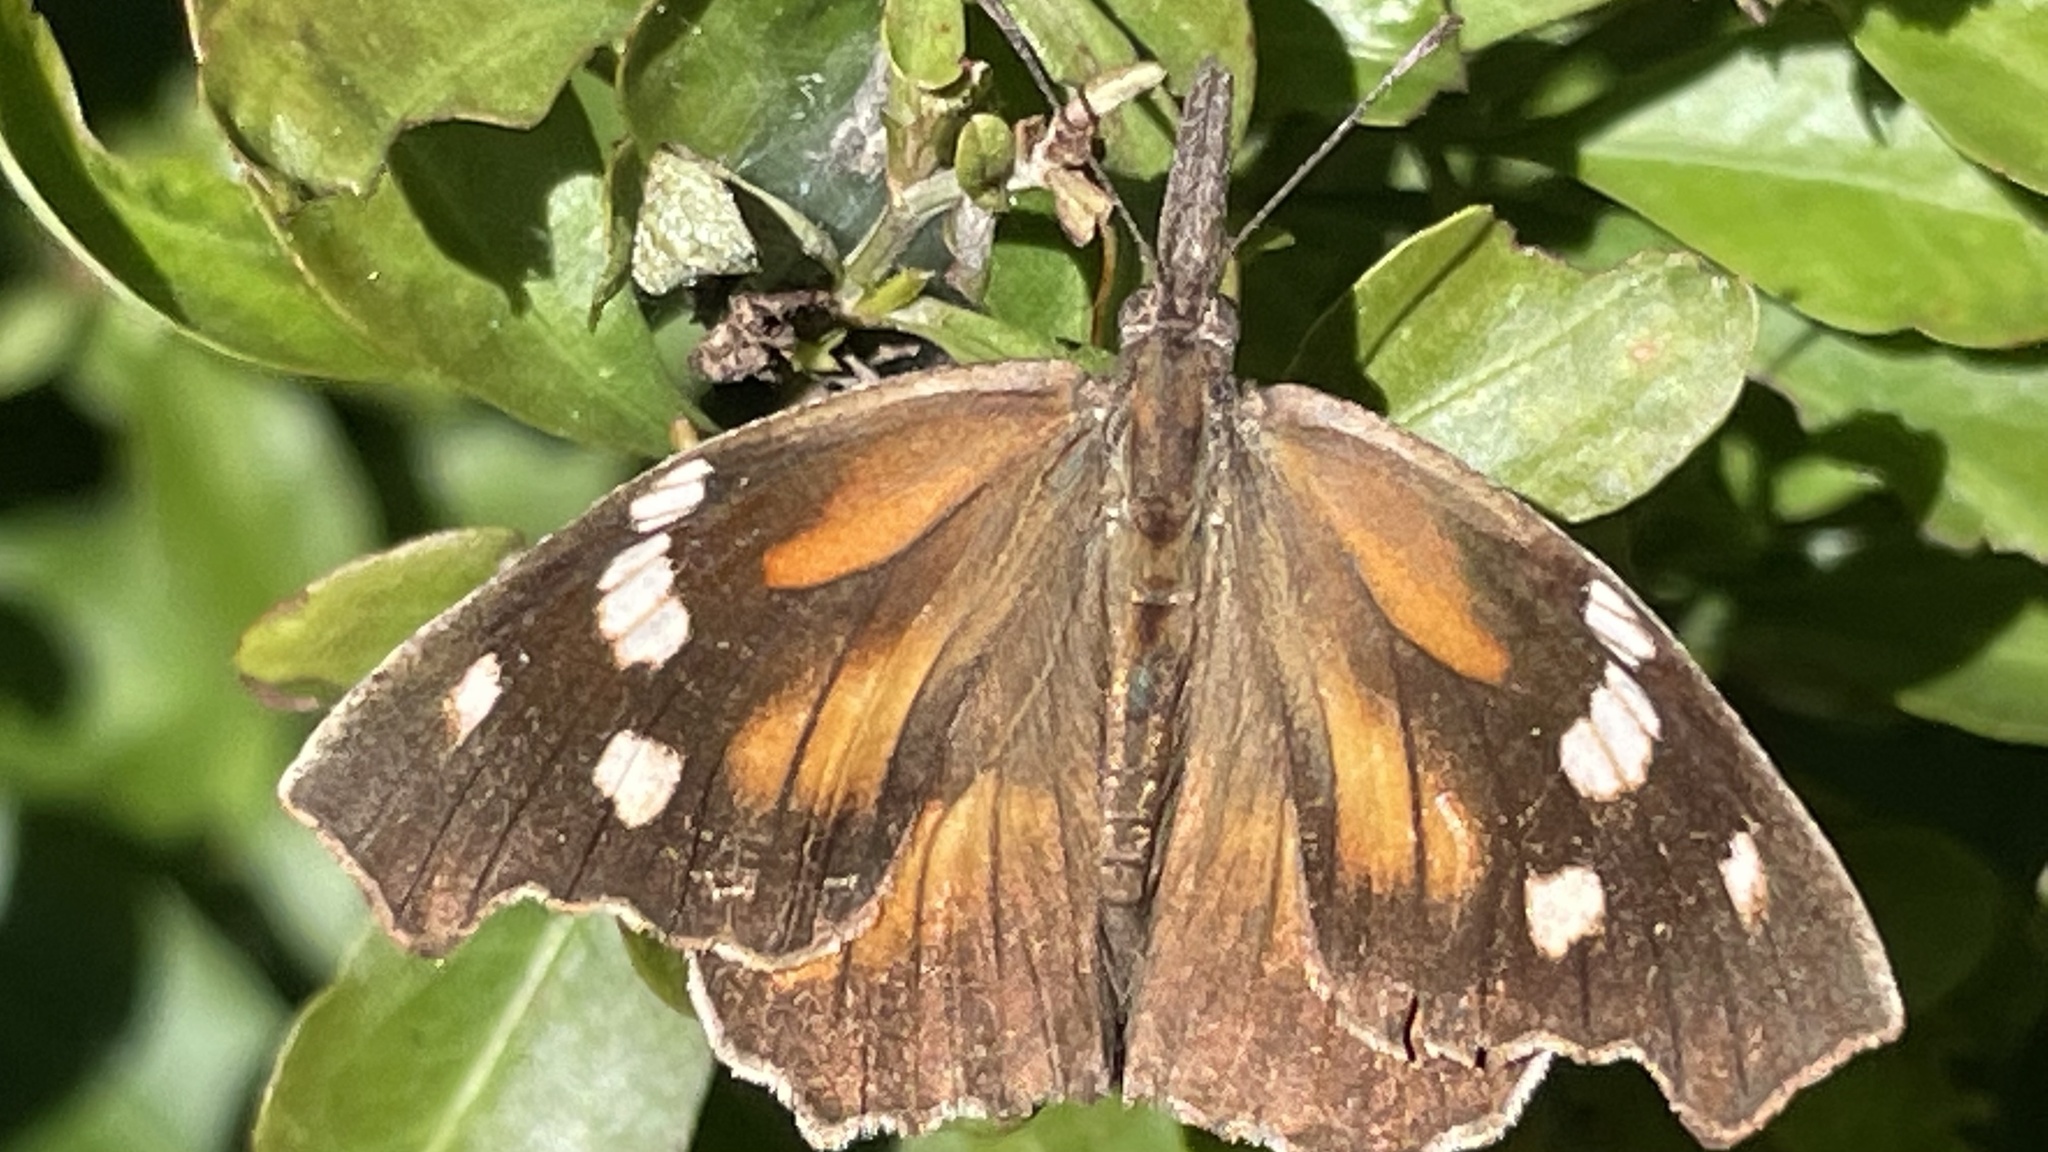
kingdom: Animalia
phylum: Arthropoda
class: Insecta
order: Lepidoptera
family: Nymphalidae
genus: Libytheana
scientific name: Libytheana carinenta
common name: American snout
